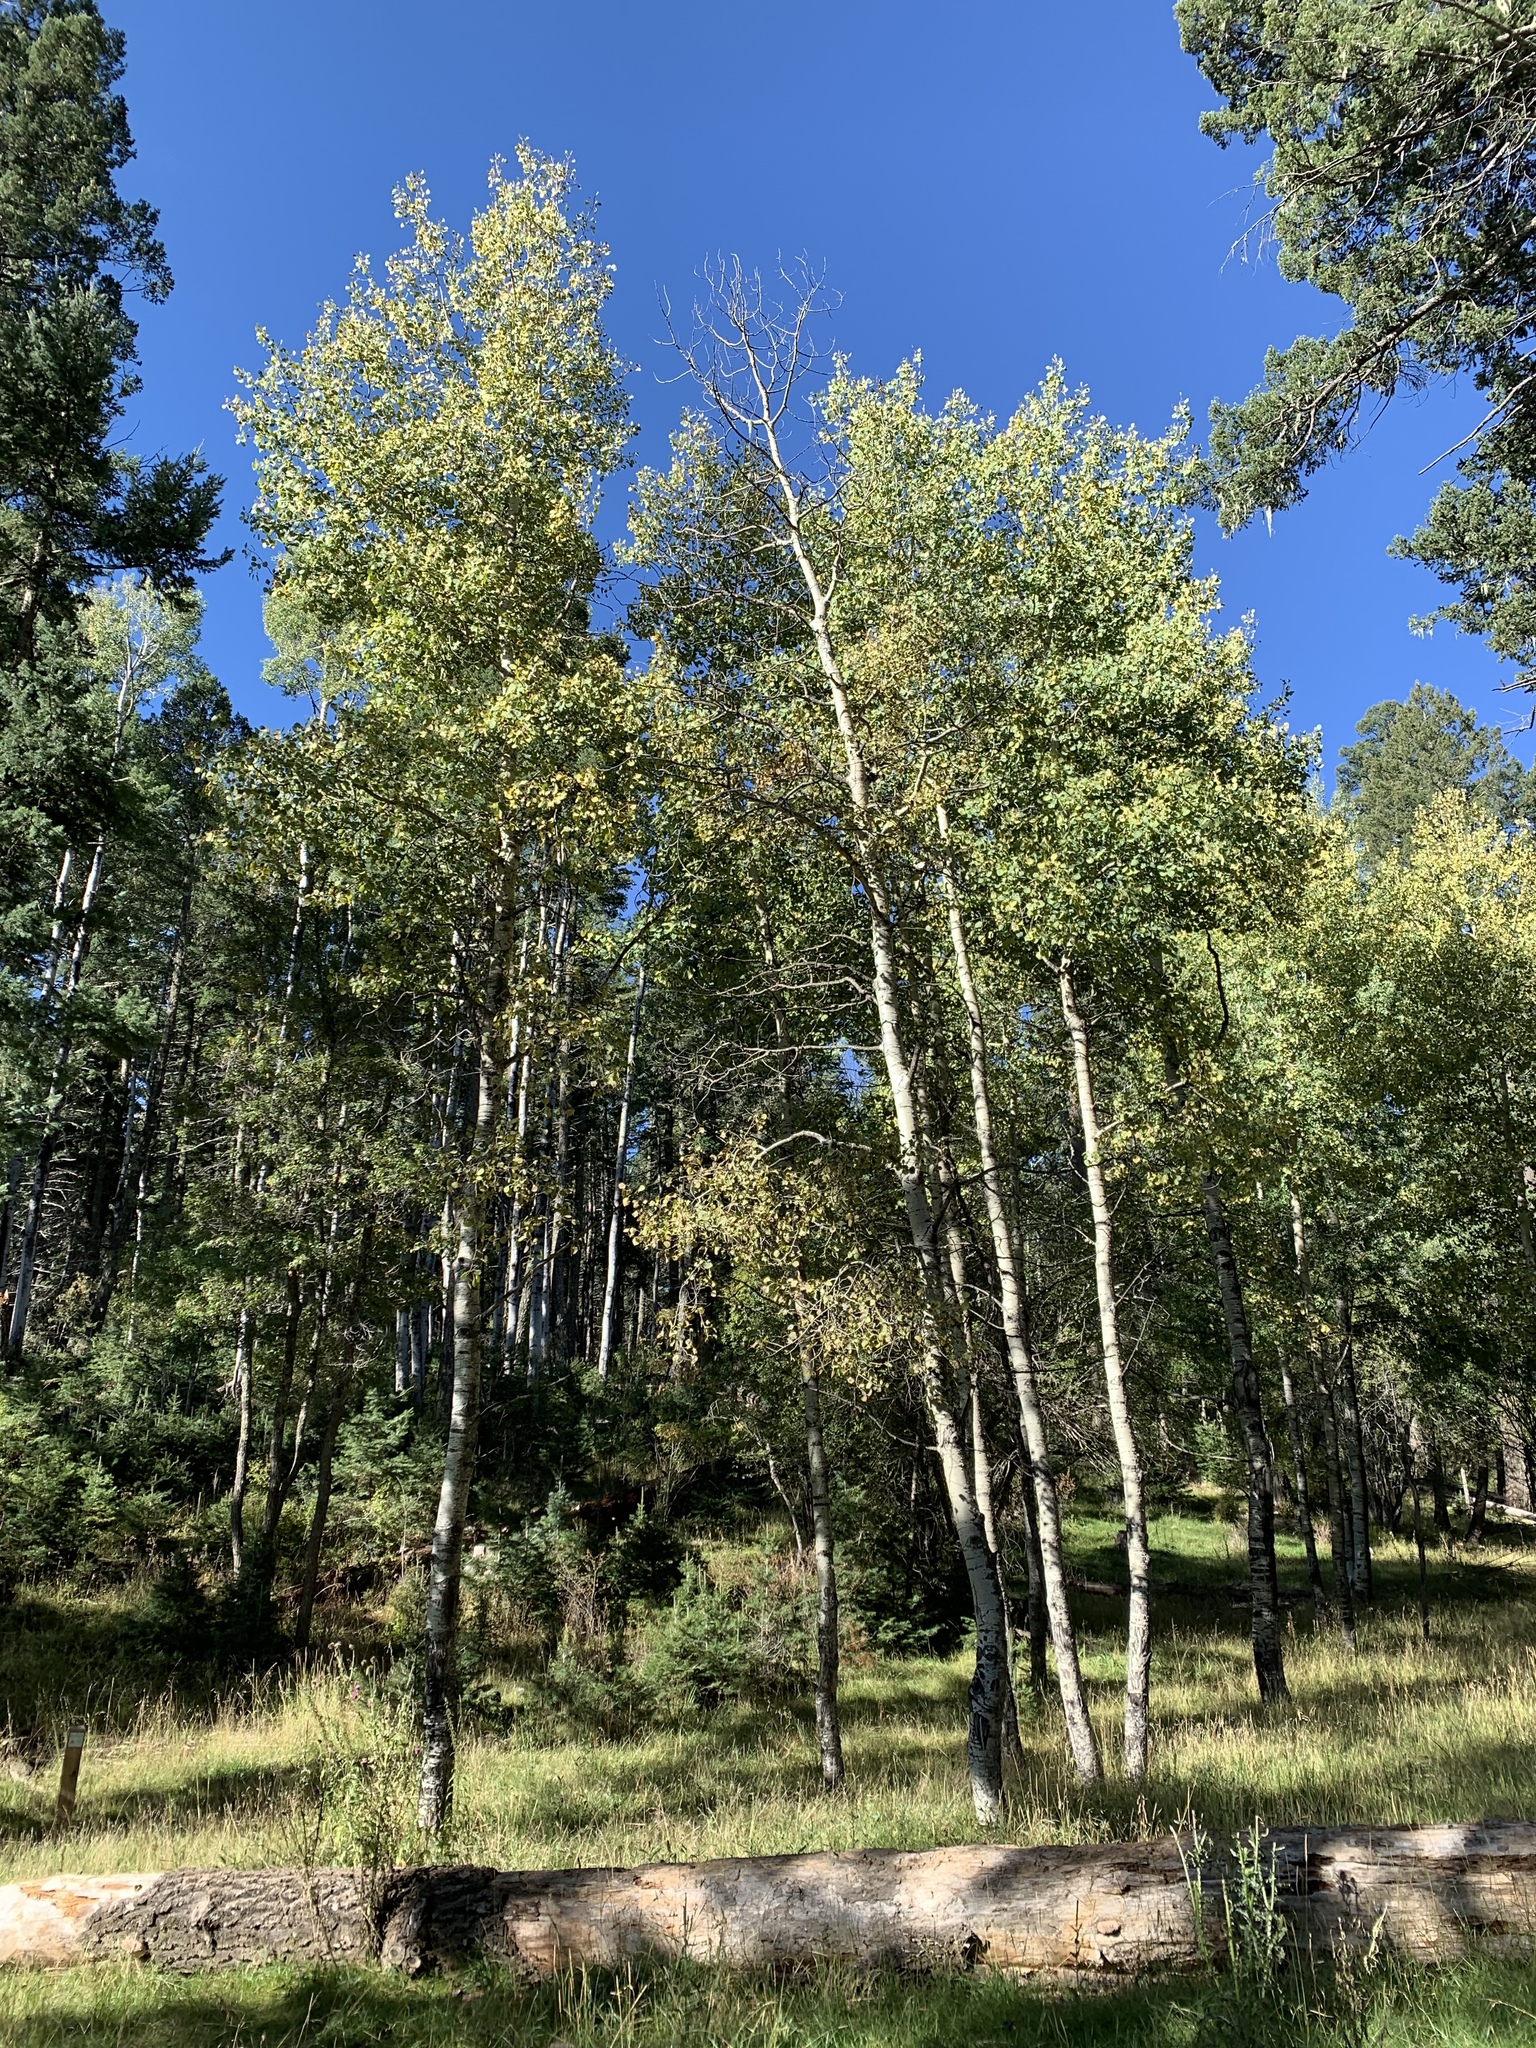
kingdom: Plantae
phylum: Tracheophyta
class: Magnoliopsida
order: Malpighiales
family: Salicaceae
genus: Populus
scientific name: Populus tremuloides
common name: Quaking aspen
